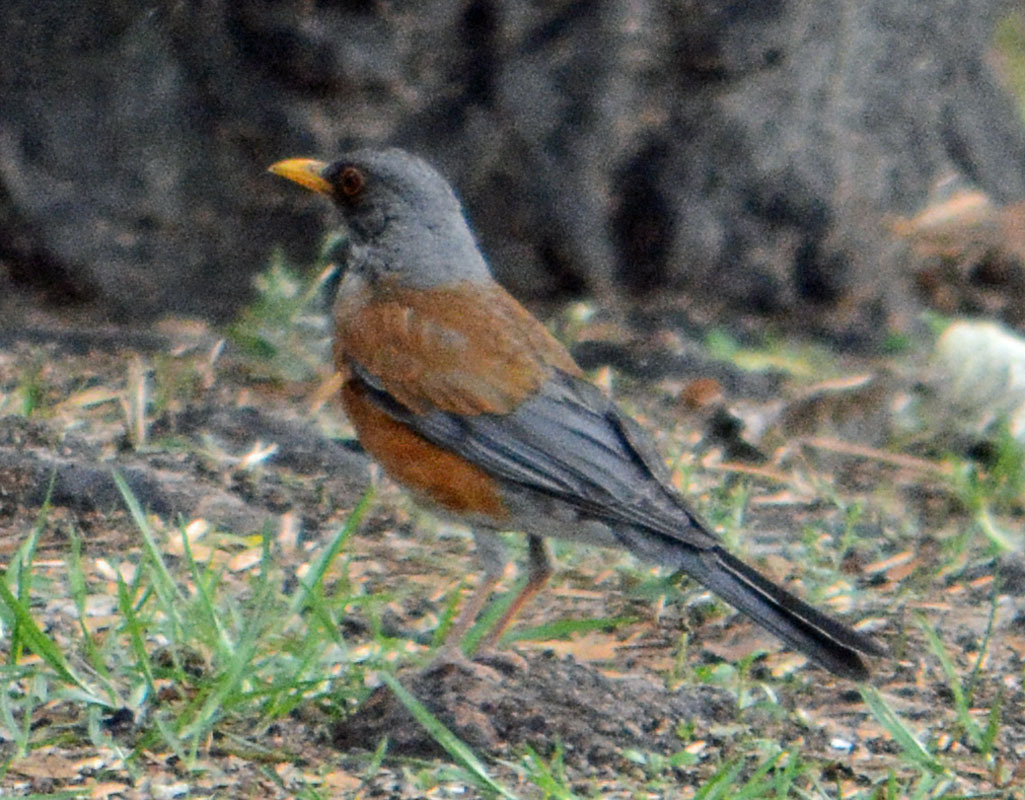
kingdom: Animalia
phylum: Chordata
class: Aves
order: Passeriformes
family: Turdidae
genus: Turdus
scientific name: Turdus rufopalliatus
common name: Rufous-backed robin
